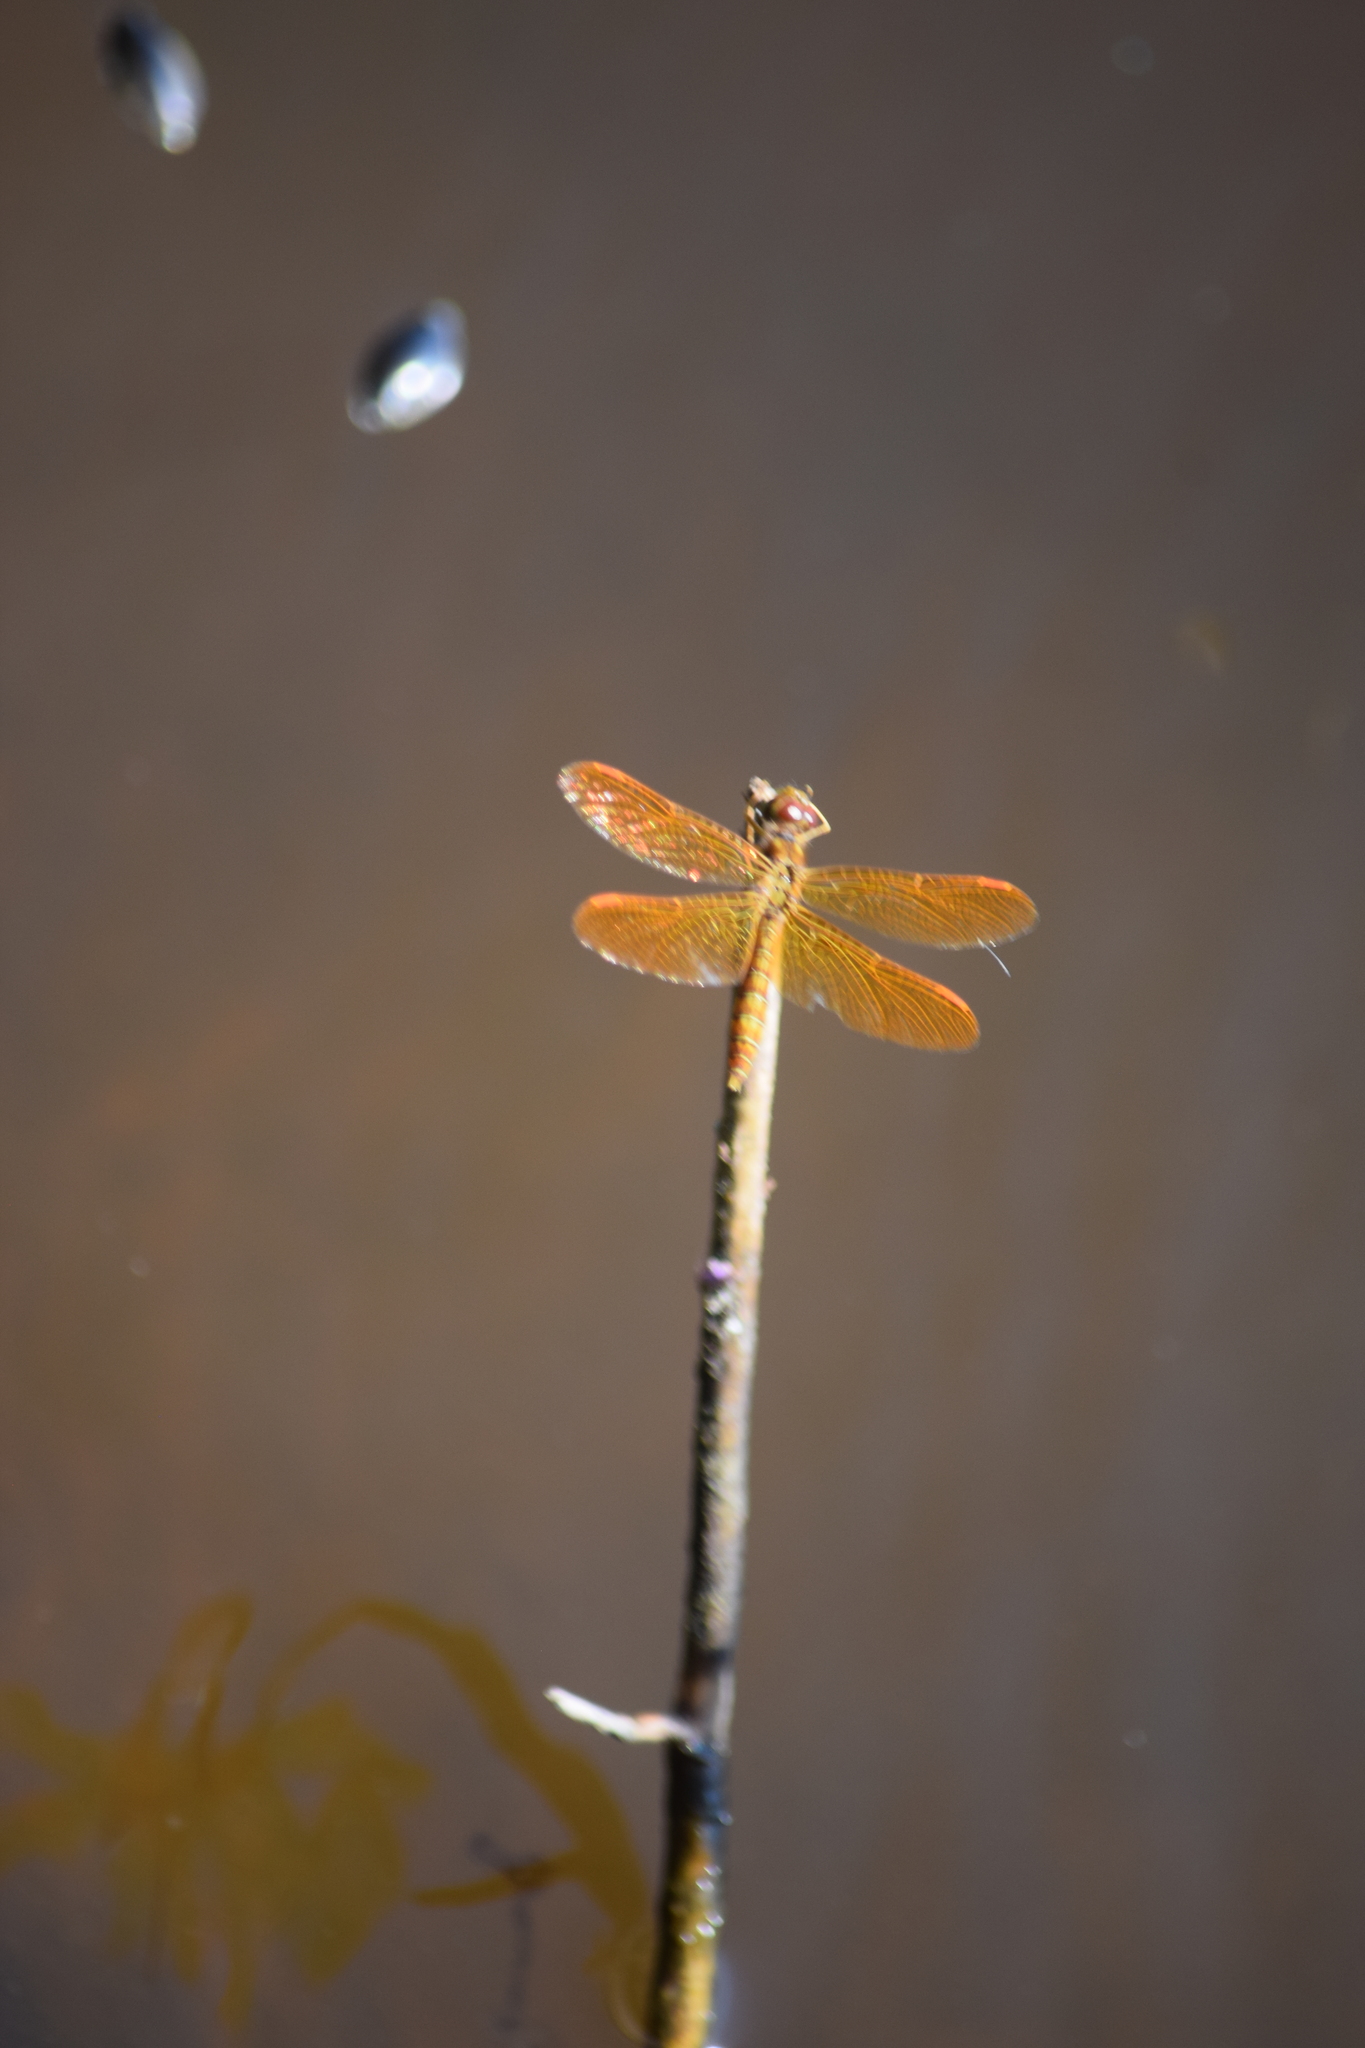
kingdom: Animalia
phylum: Arthropoda
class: Insecta
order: Odonata
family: Libellulidae
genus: Perithemis
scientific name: Perithemis tenera
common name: Eastern amberwing
